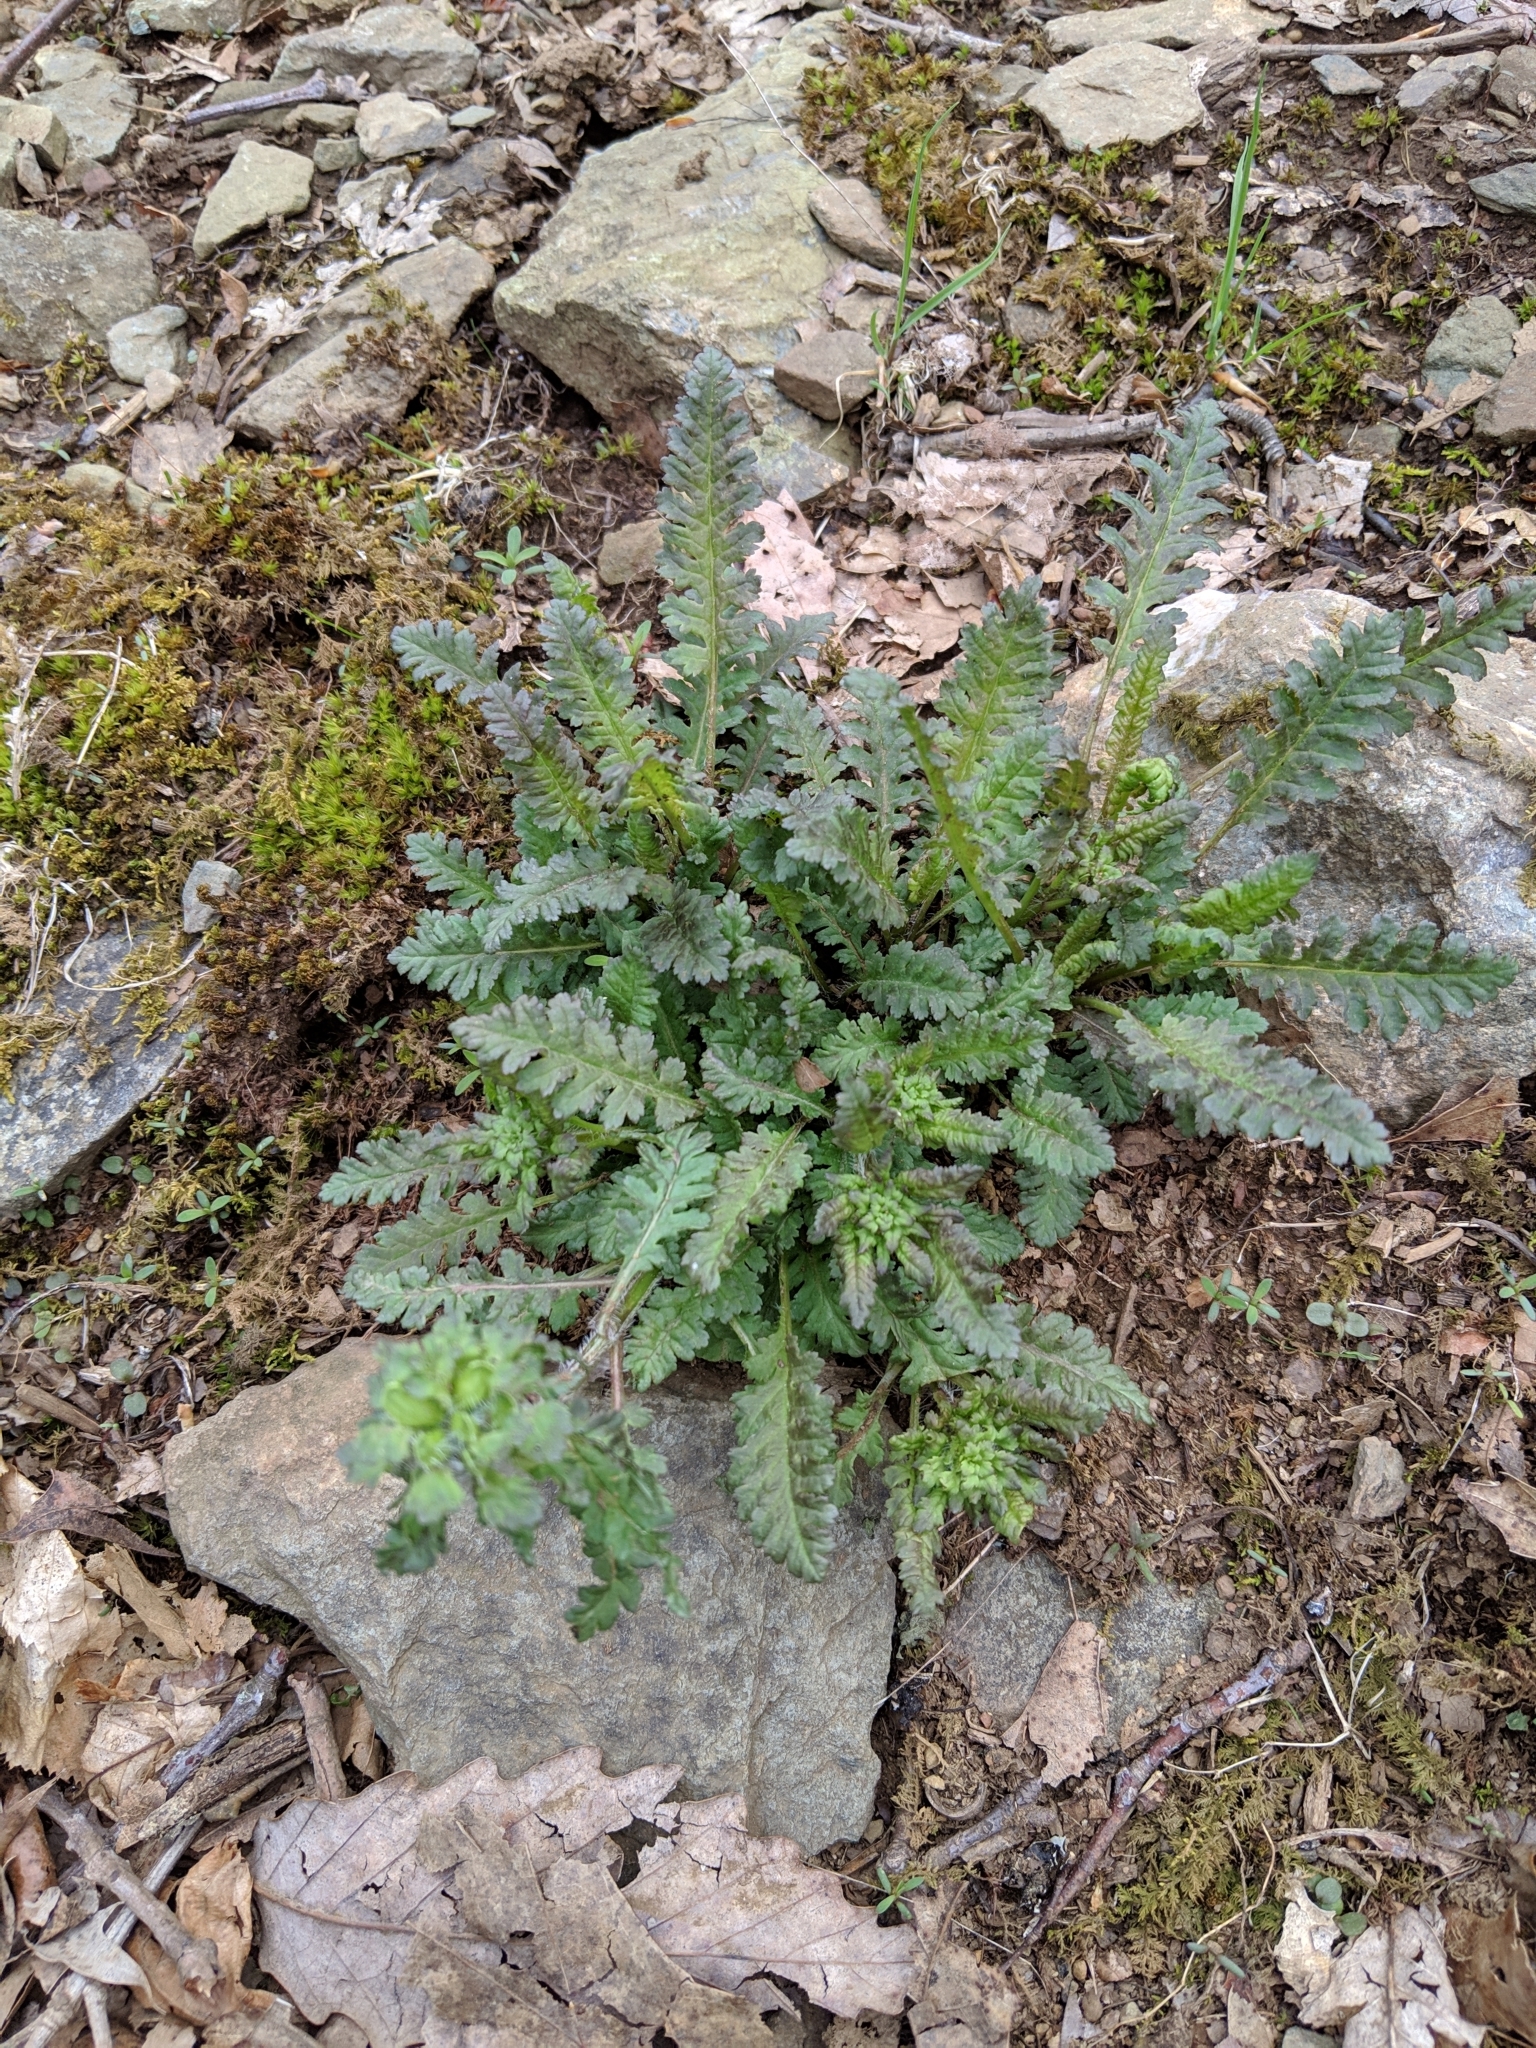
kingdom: Plantae
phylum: Tracheophyta
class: Magnoliopsida
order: Lamiales
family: Orobanchaceae
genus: Pedicularis
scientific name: Pedicularis canadensis
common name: Early lousewort
